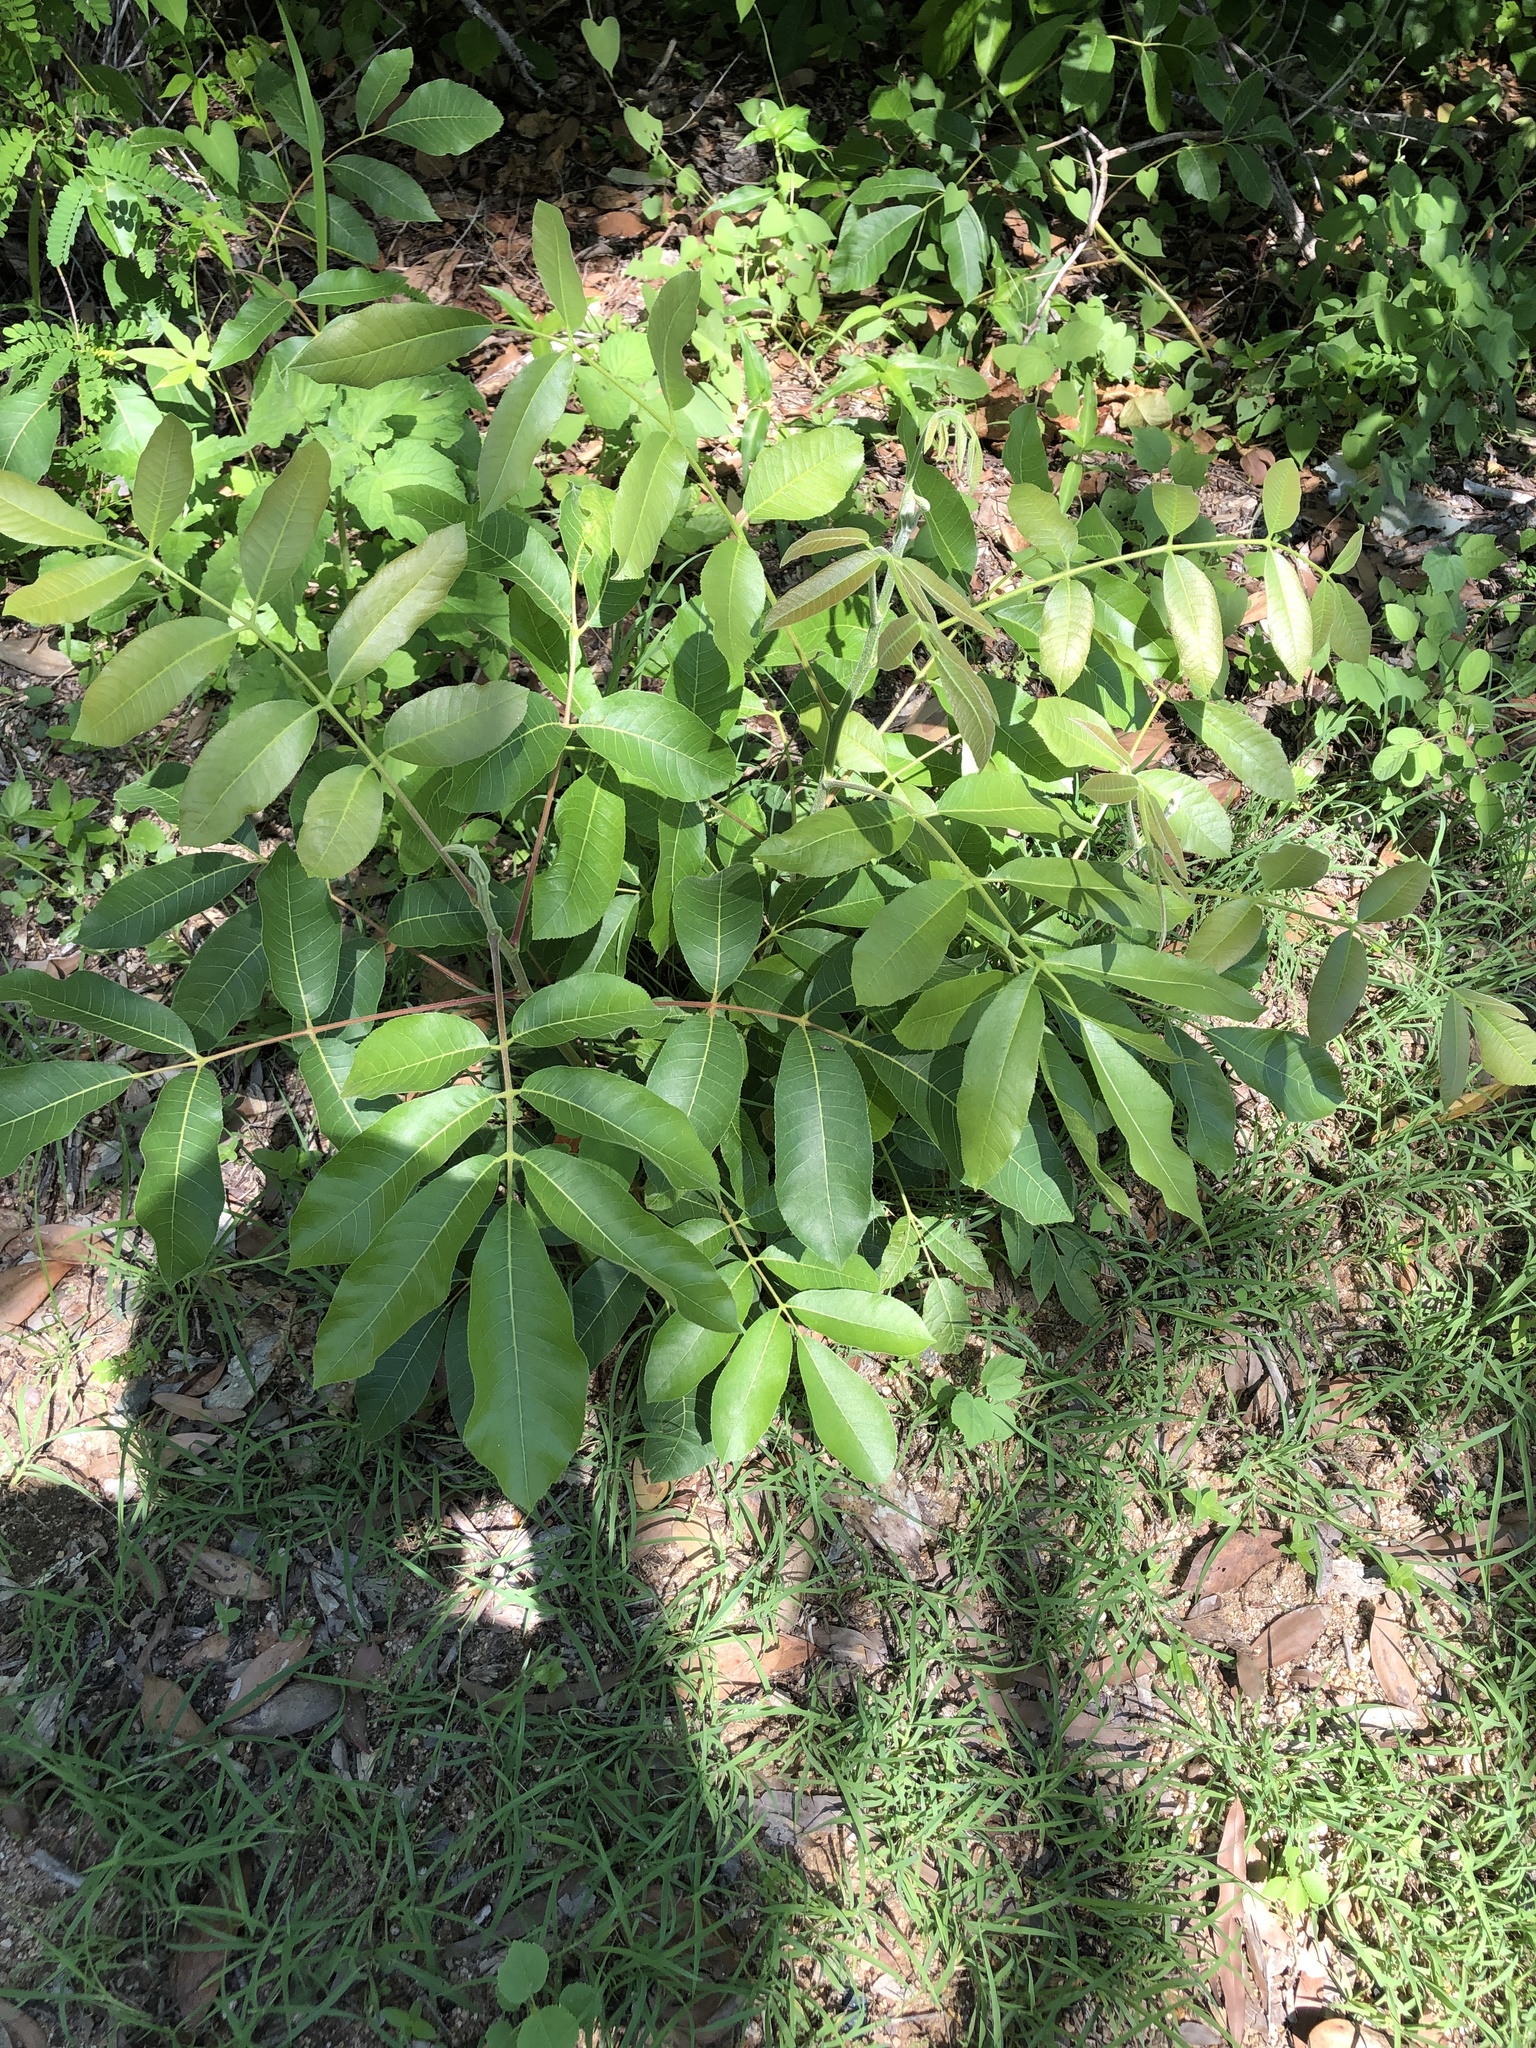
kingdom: Plantae
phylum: Tracheophyta
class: Magnoliopsida
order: Sapindales
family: Burseraceae
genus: Canarium
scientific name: Canarium australianum
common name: Island white-beech
